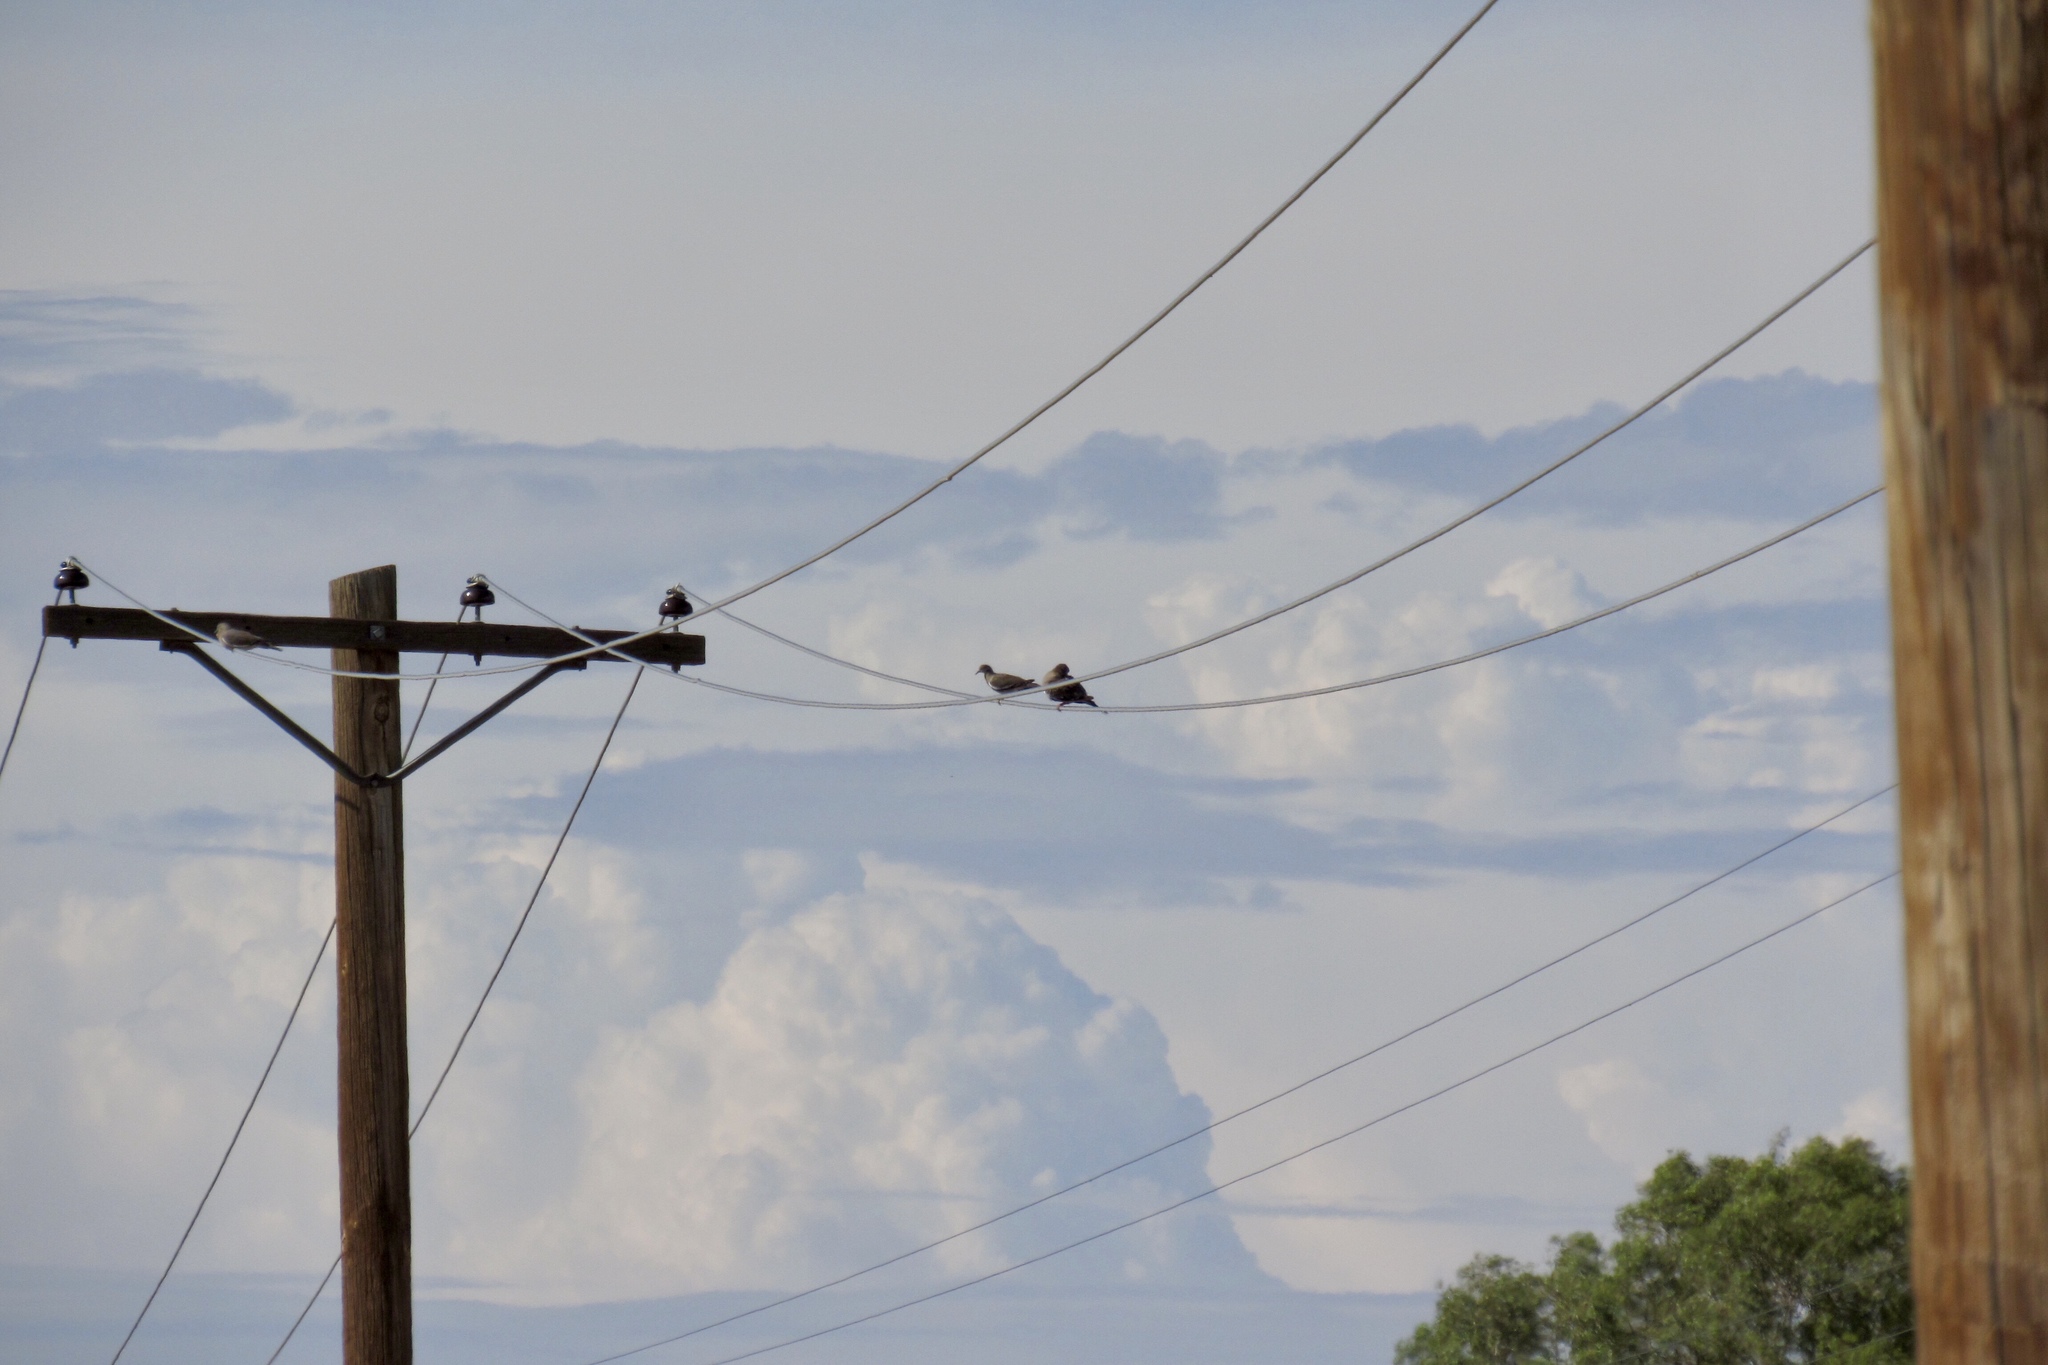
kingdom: Animalia
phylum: Chordata
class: Aves
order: Columbiformes
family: Columbidae
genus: Zenaida
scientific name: Zenaida asiatica
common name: White-winged dove
